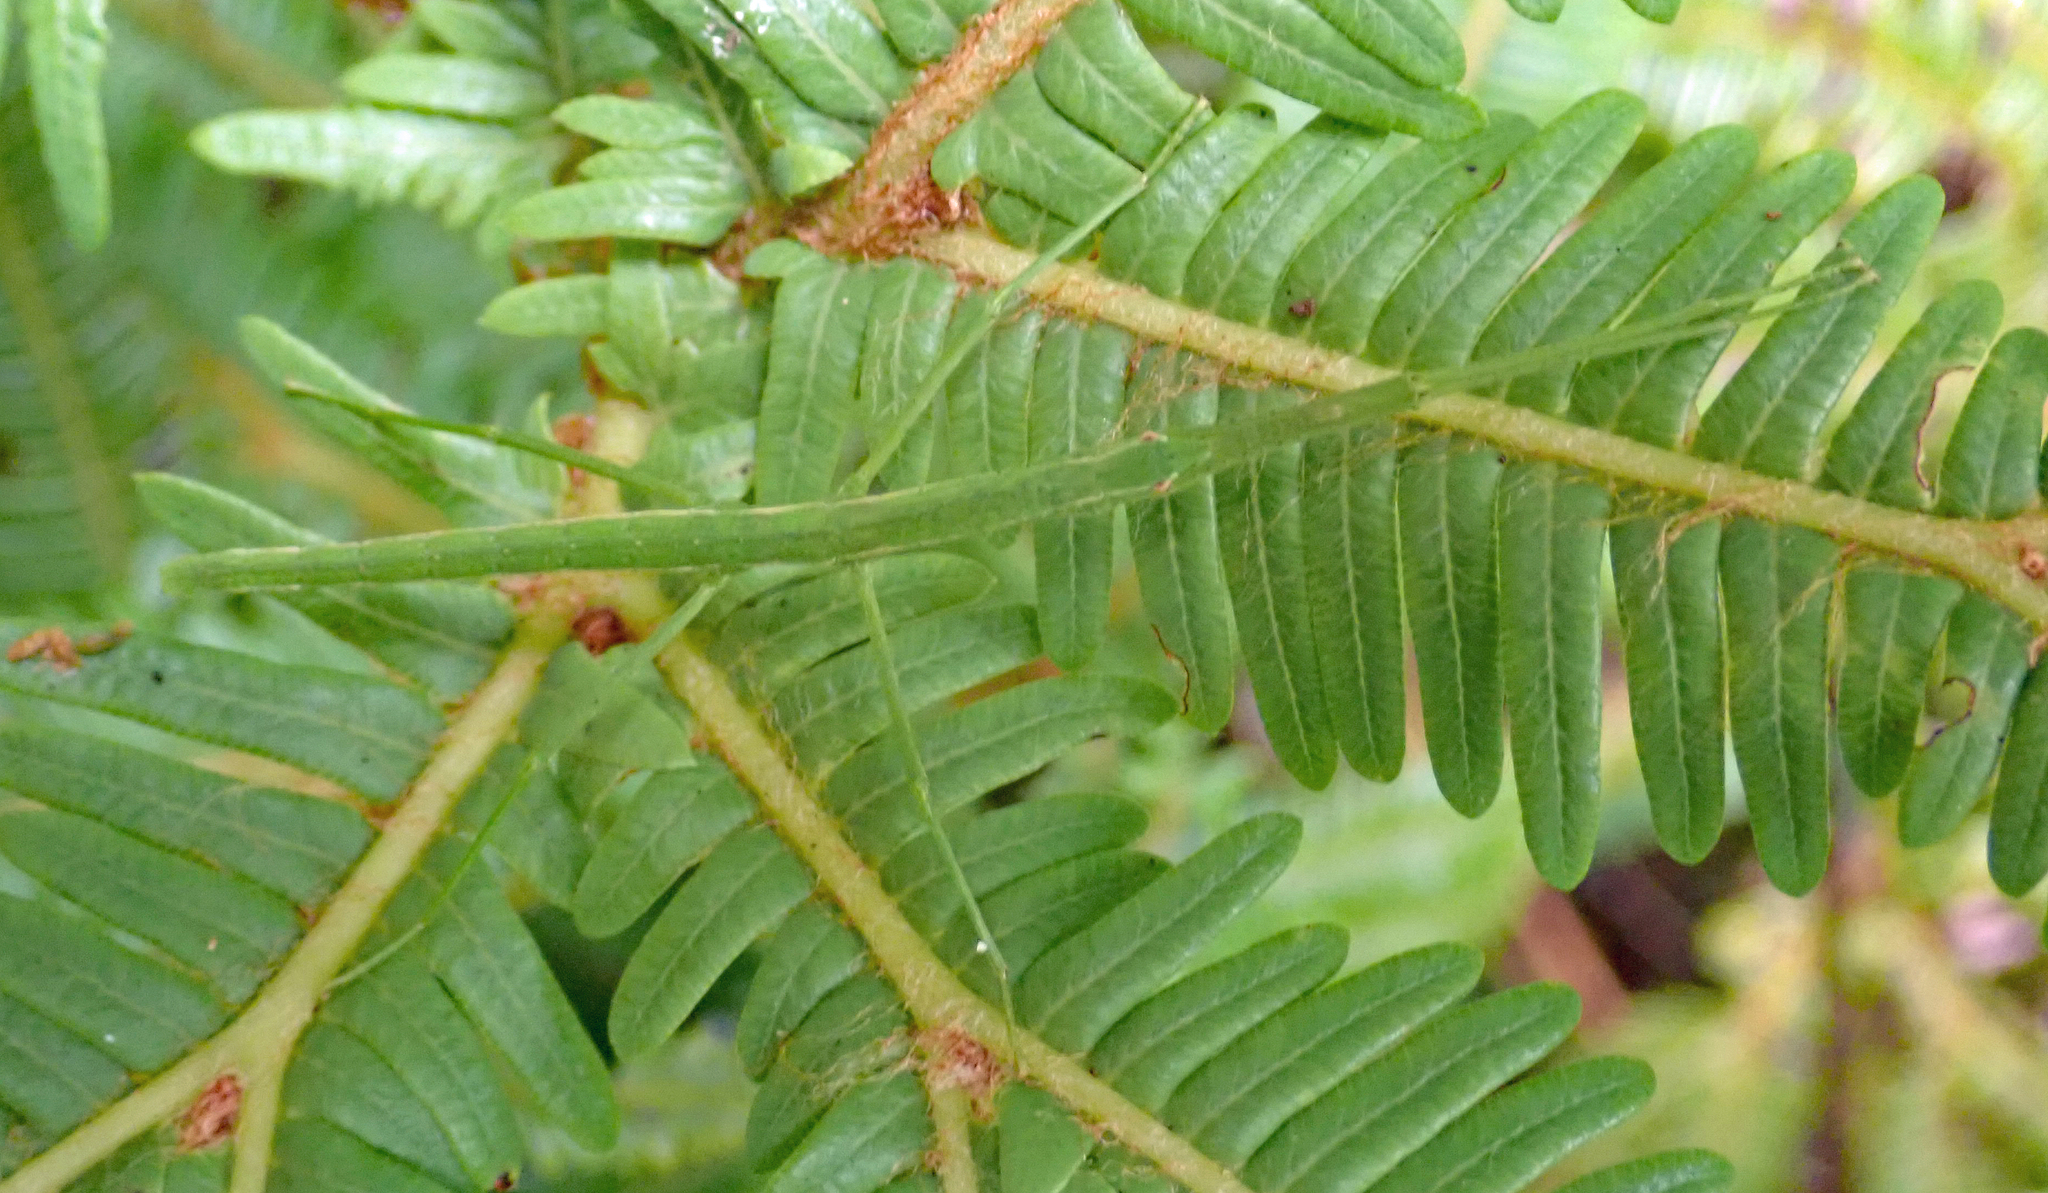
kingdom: Animalia
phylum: Arthropoda
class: Insecta
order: Phasmida
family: Phasmatidae
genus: Spinotectarchus
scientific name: Spinotectarchus acornutus
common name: The spiny ridge-backed stick insect
